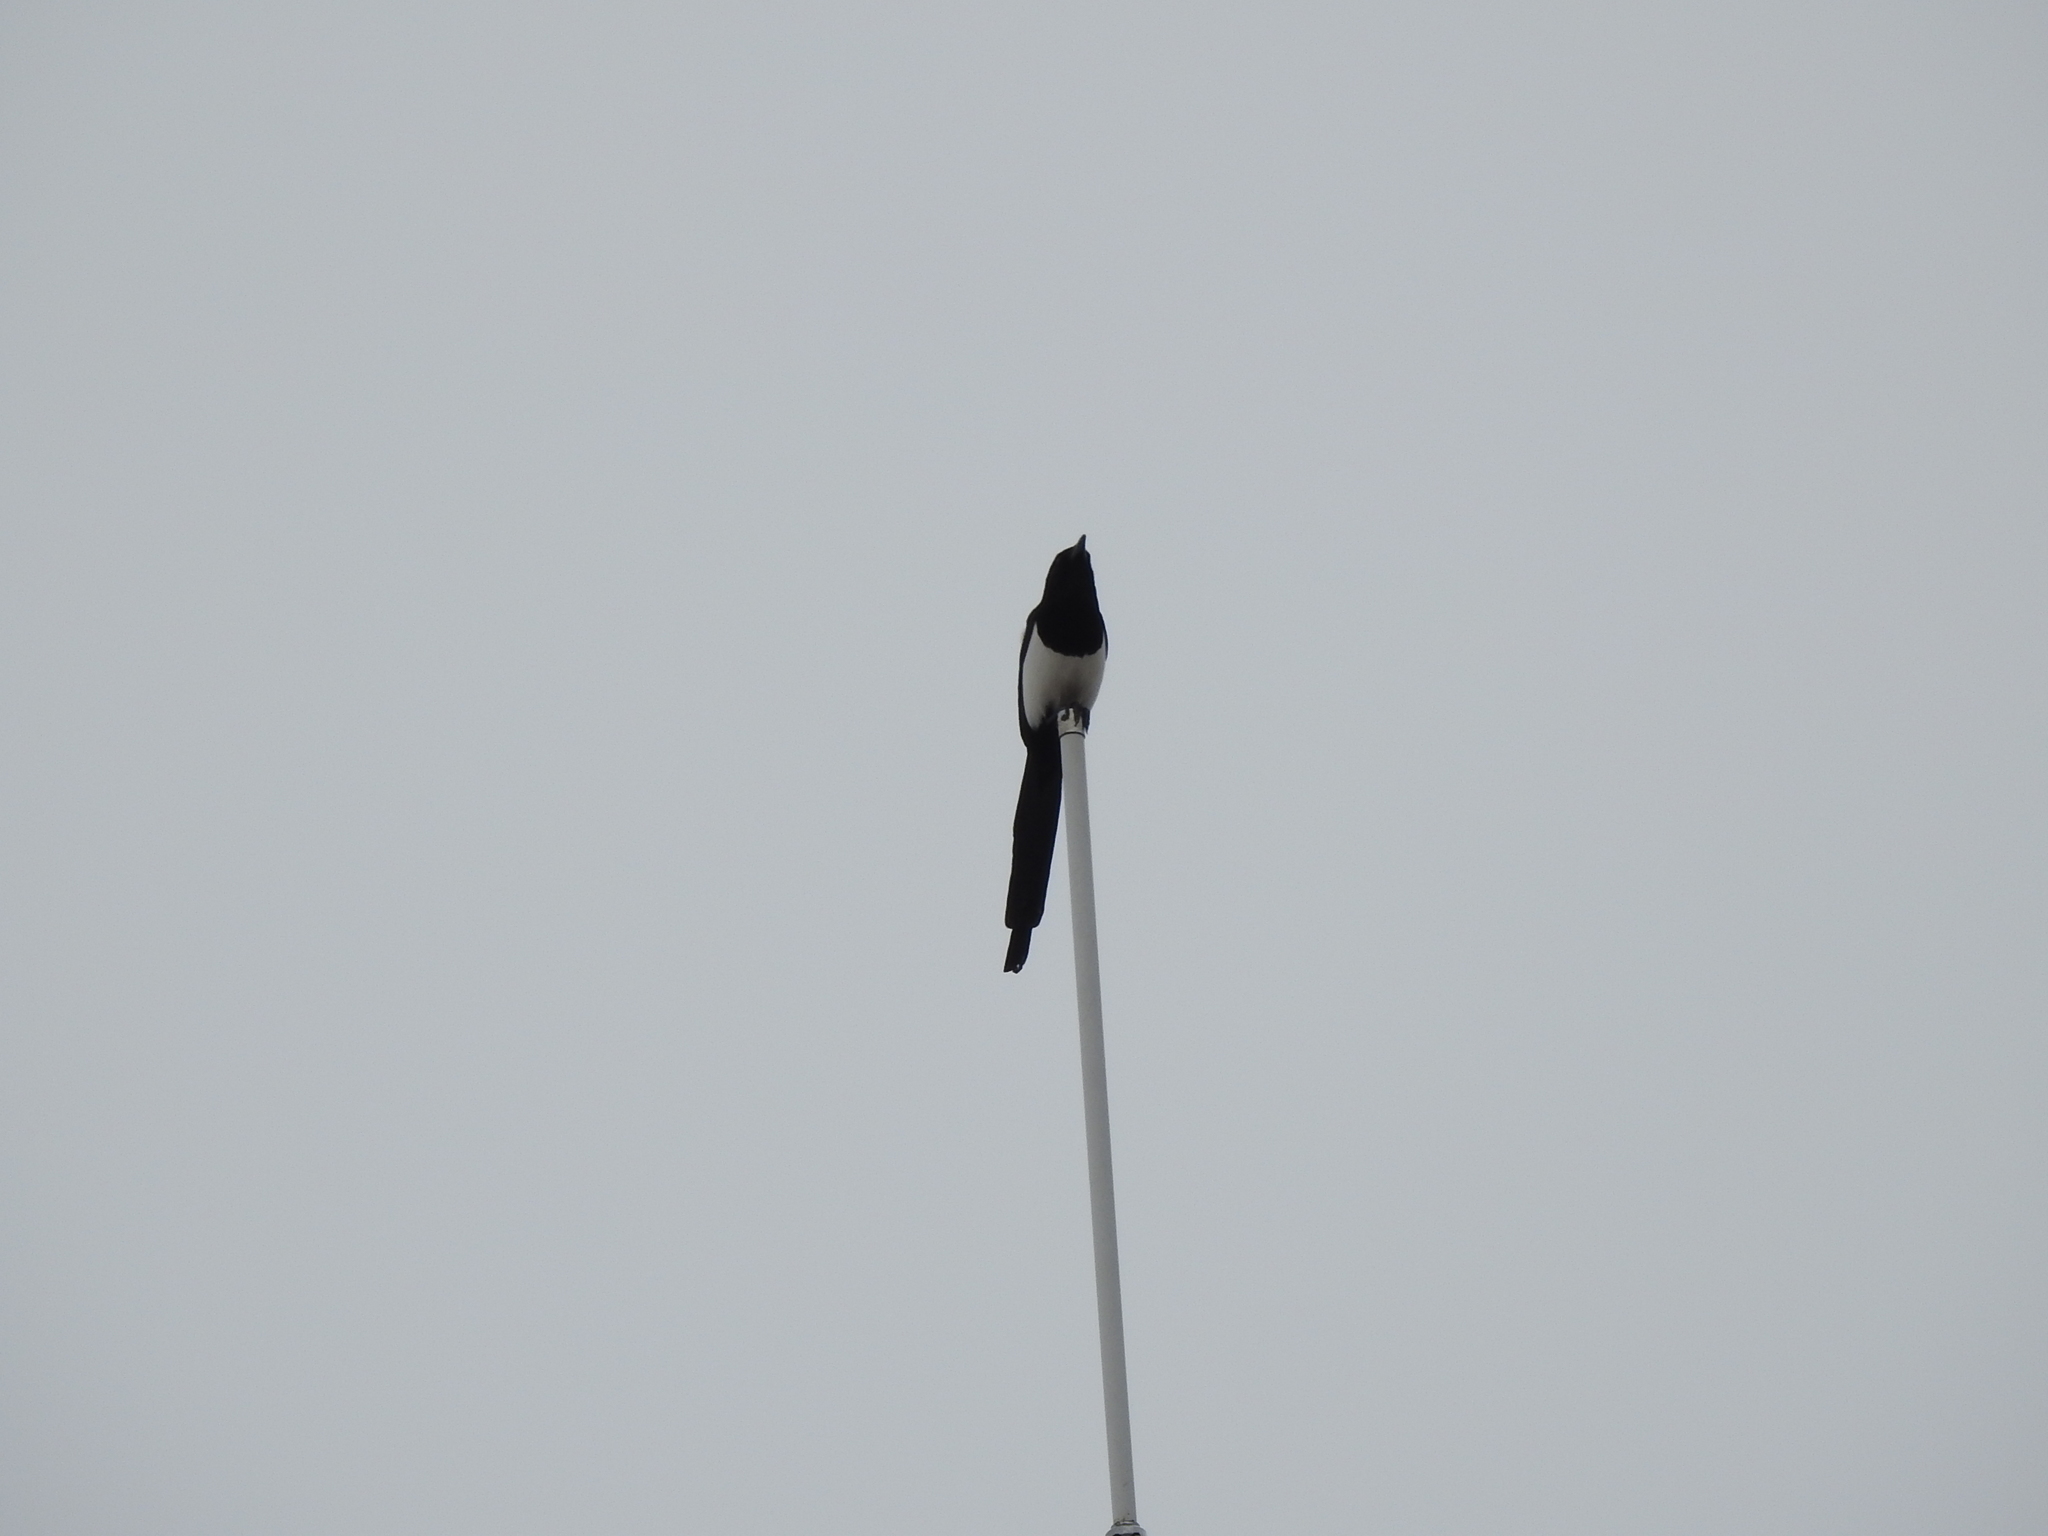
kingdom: Animalia
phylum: Chordata
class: Aves
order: Passeriformes
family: Corvidae
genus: Pica
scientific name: Pica pica
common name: Eurasian magpie
